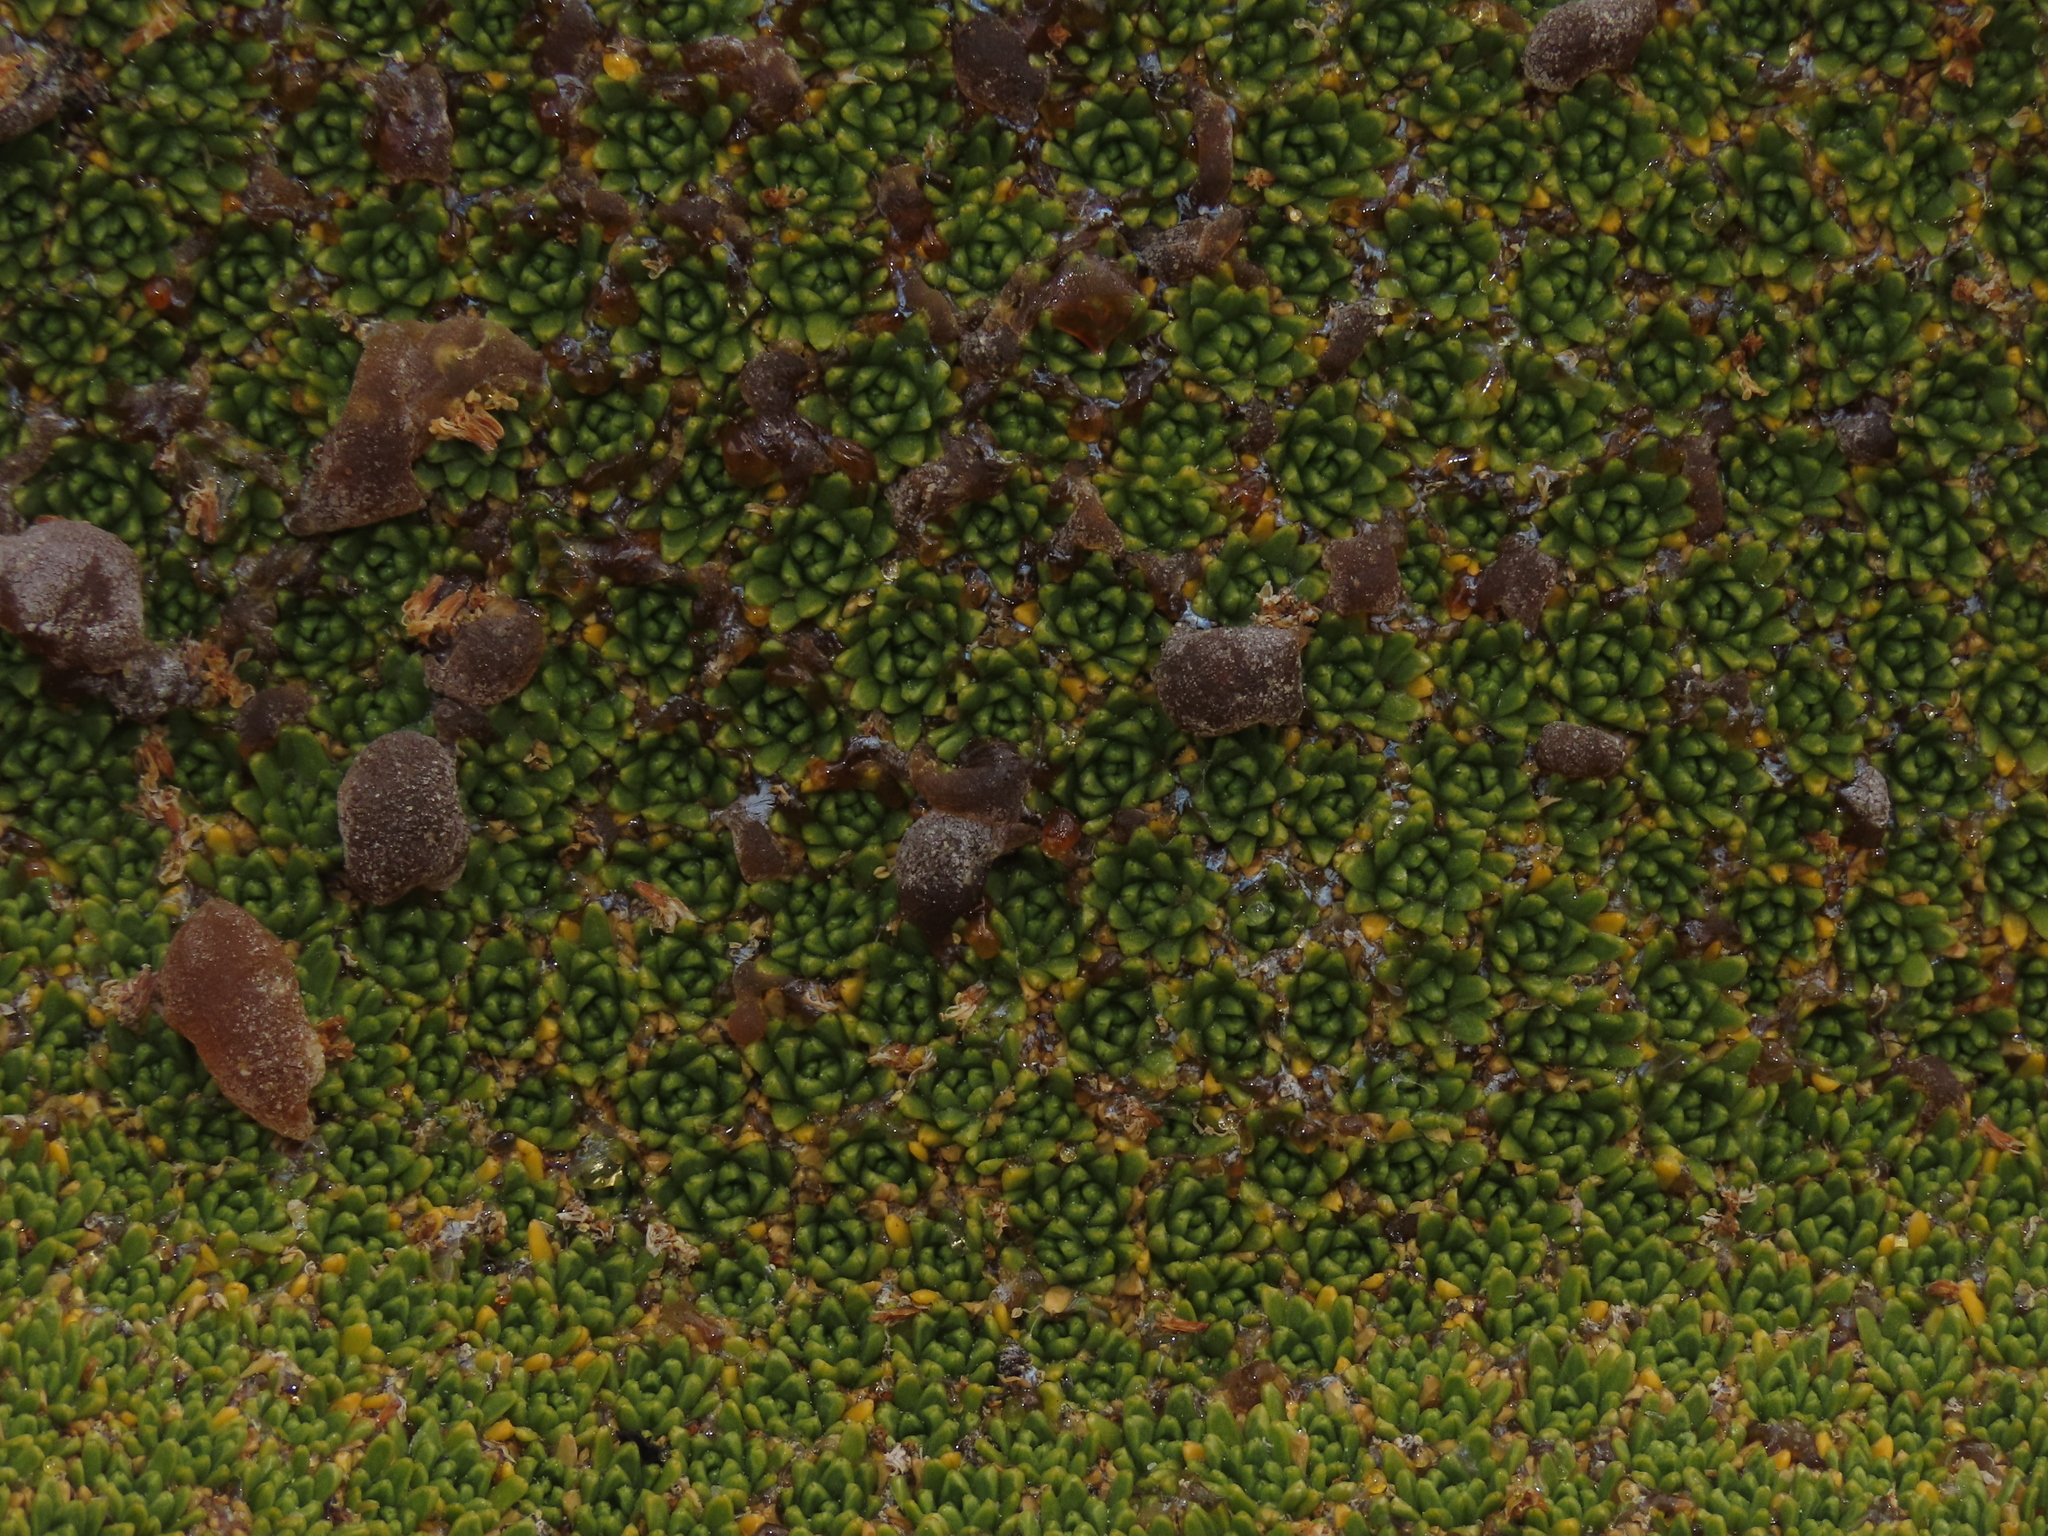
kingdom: Plantae
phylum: Tracheophyta
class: Magnoliopsida
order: Apiales
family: Apiaceae
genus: Azorella
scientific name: Azorella compacta
